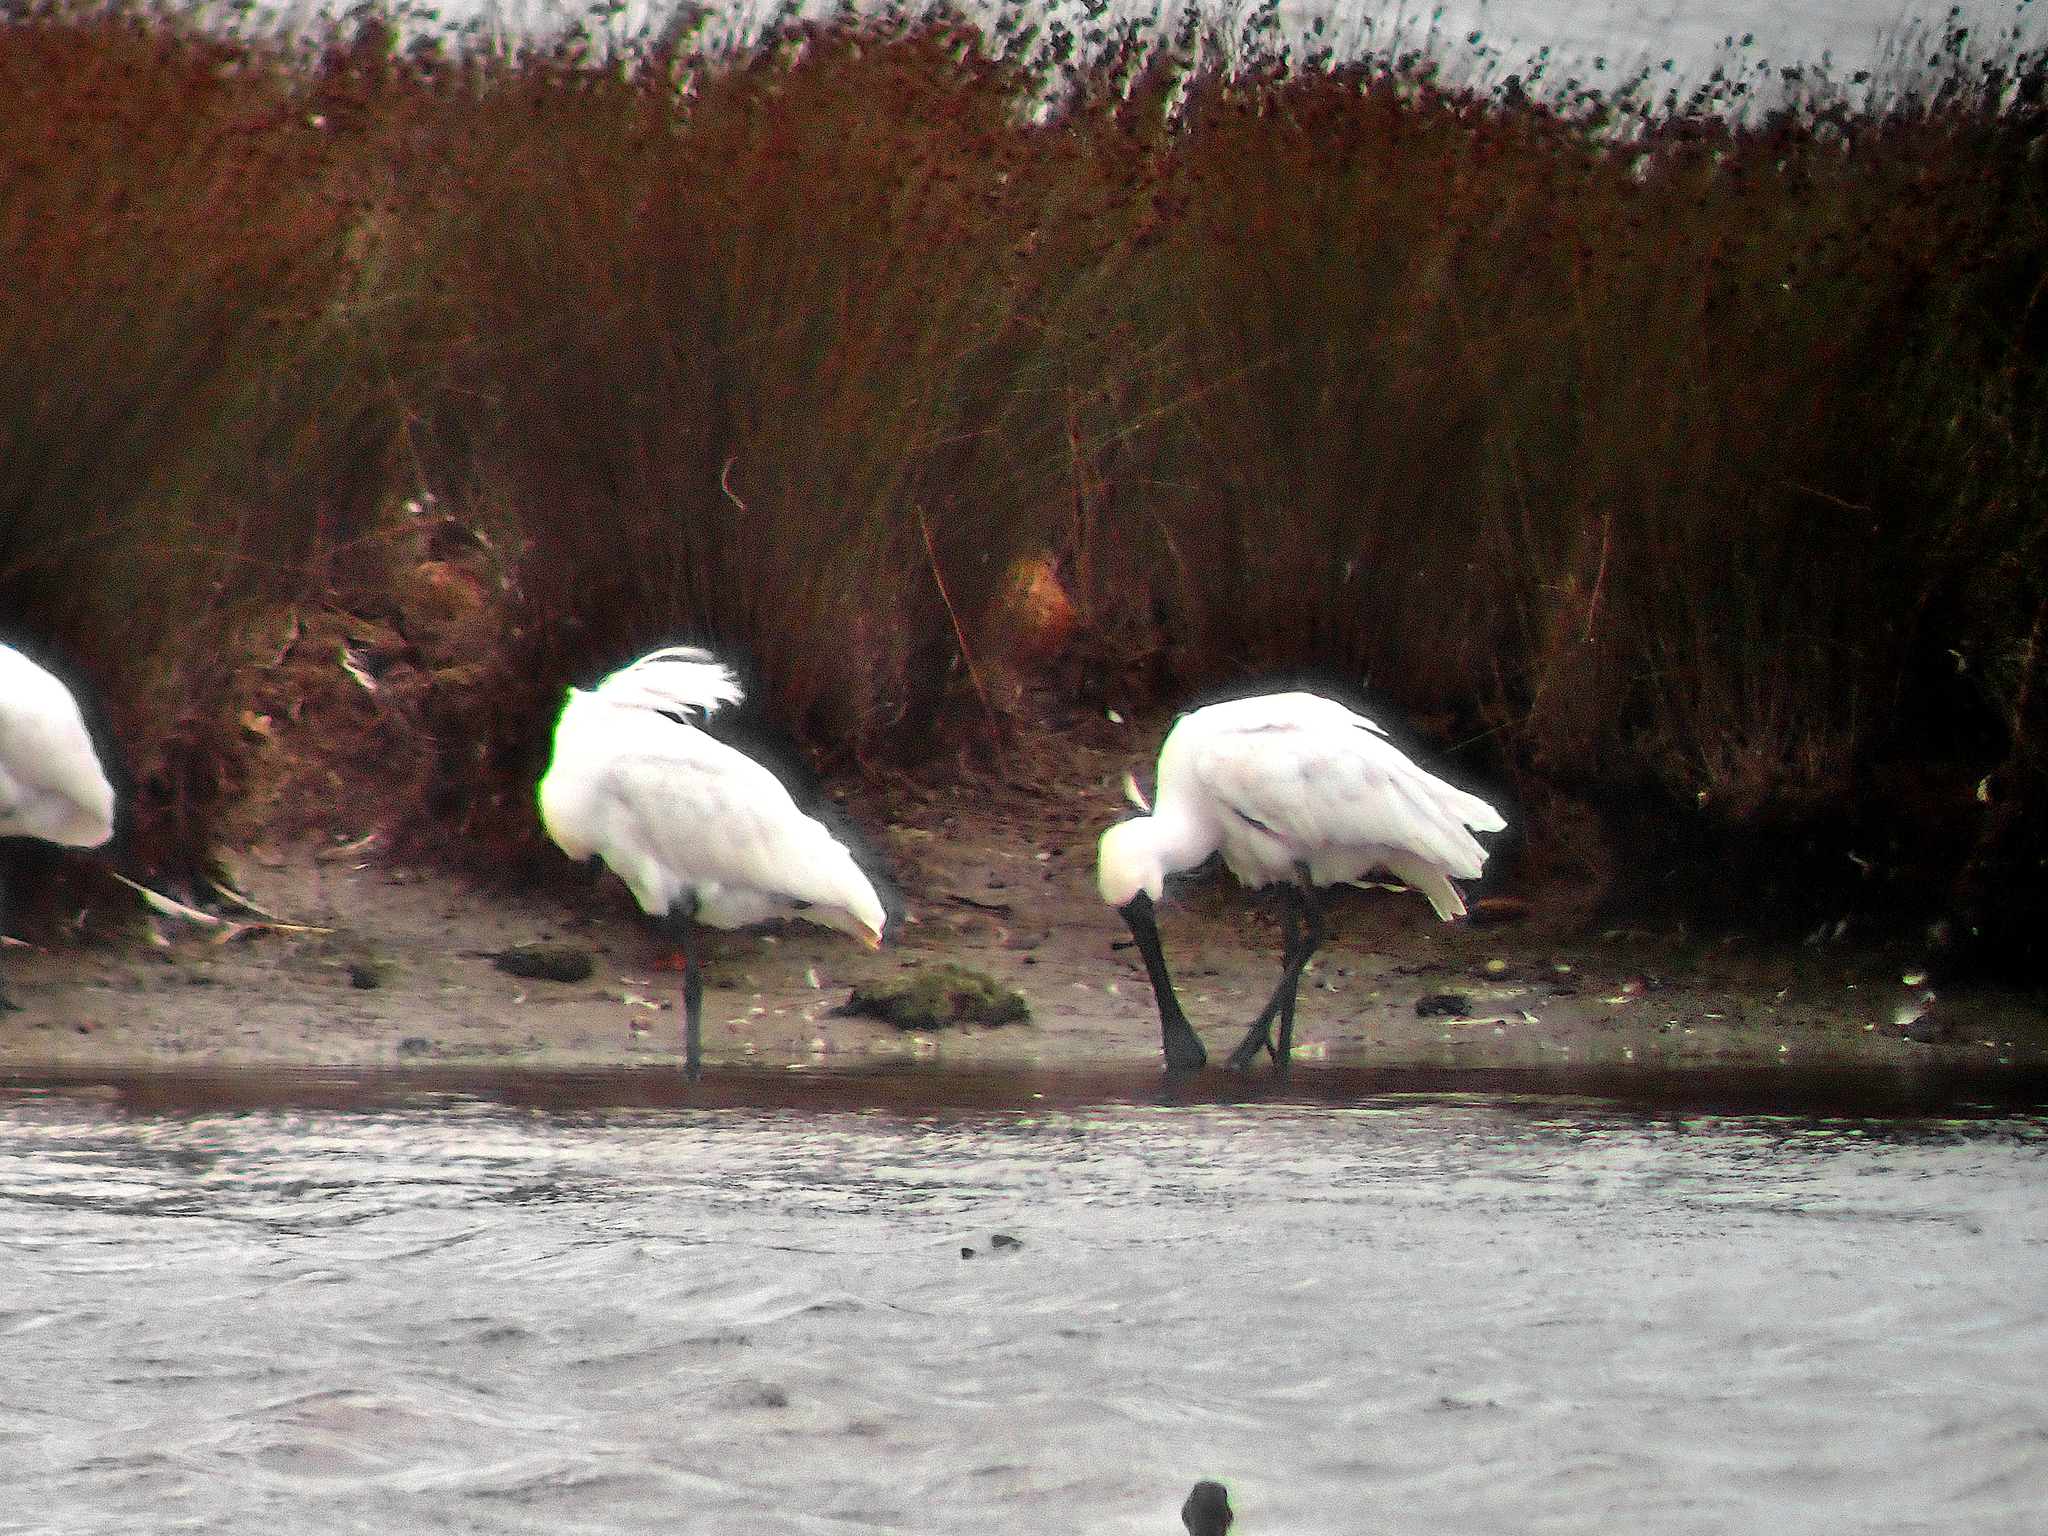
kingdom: Animalia
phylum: Chordata
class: Aves
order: Pelecaniformes
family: Threskiornithidae
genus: Platalea
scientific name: Platalea regia
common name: Royal spoonbill
